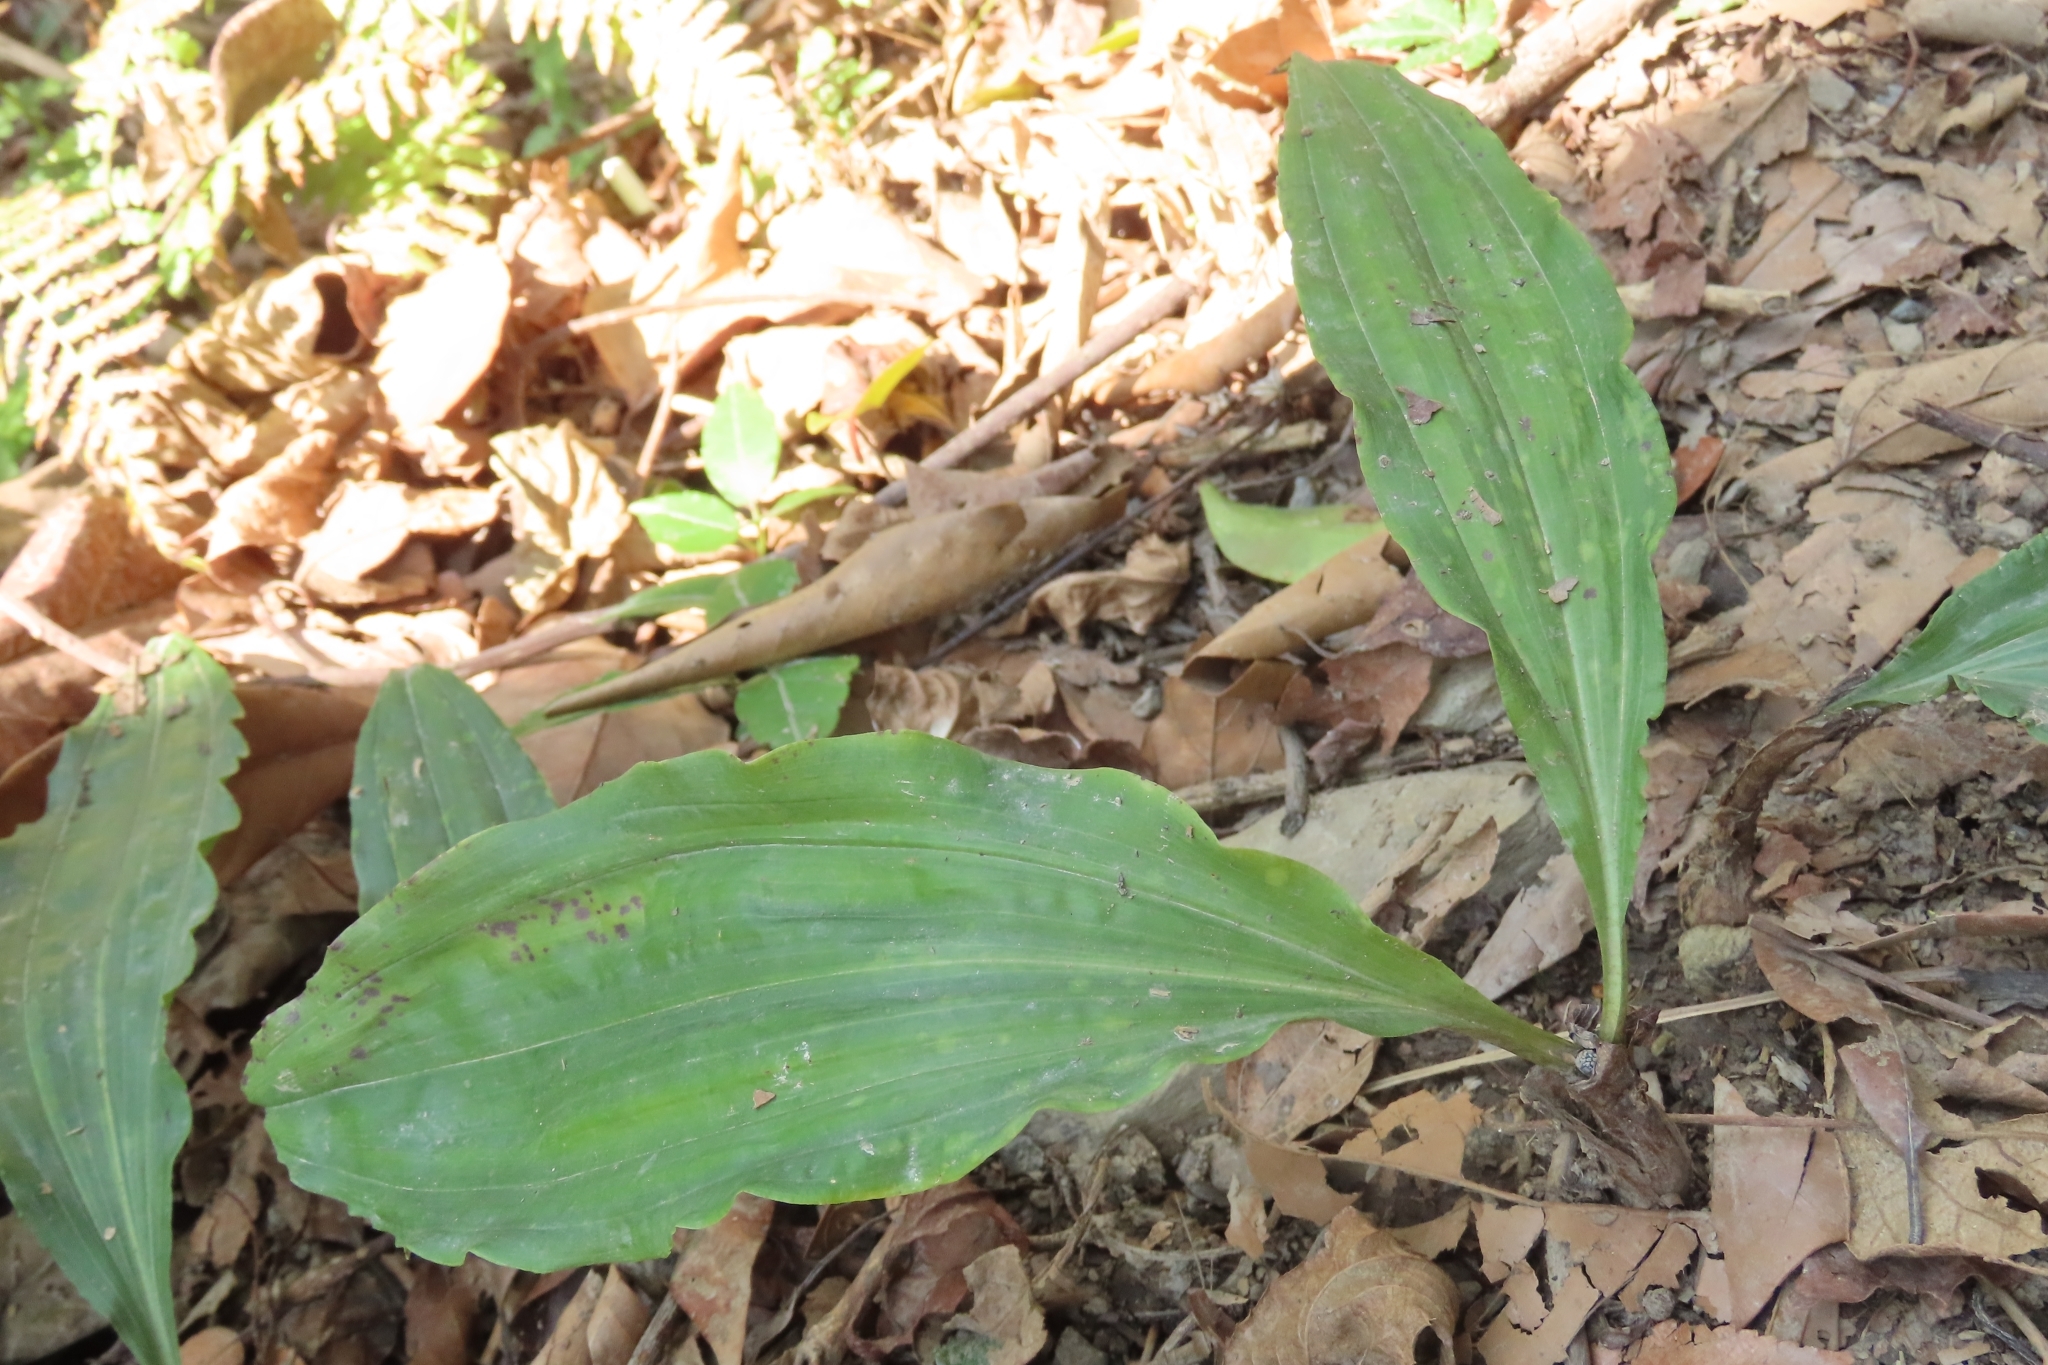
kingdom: Plantae
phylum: Tracheophyta
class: Liliopsida
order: Asparagales
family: Orchidaceae
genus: Cremastra
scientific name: Cremastra appendiculata
